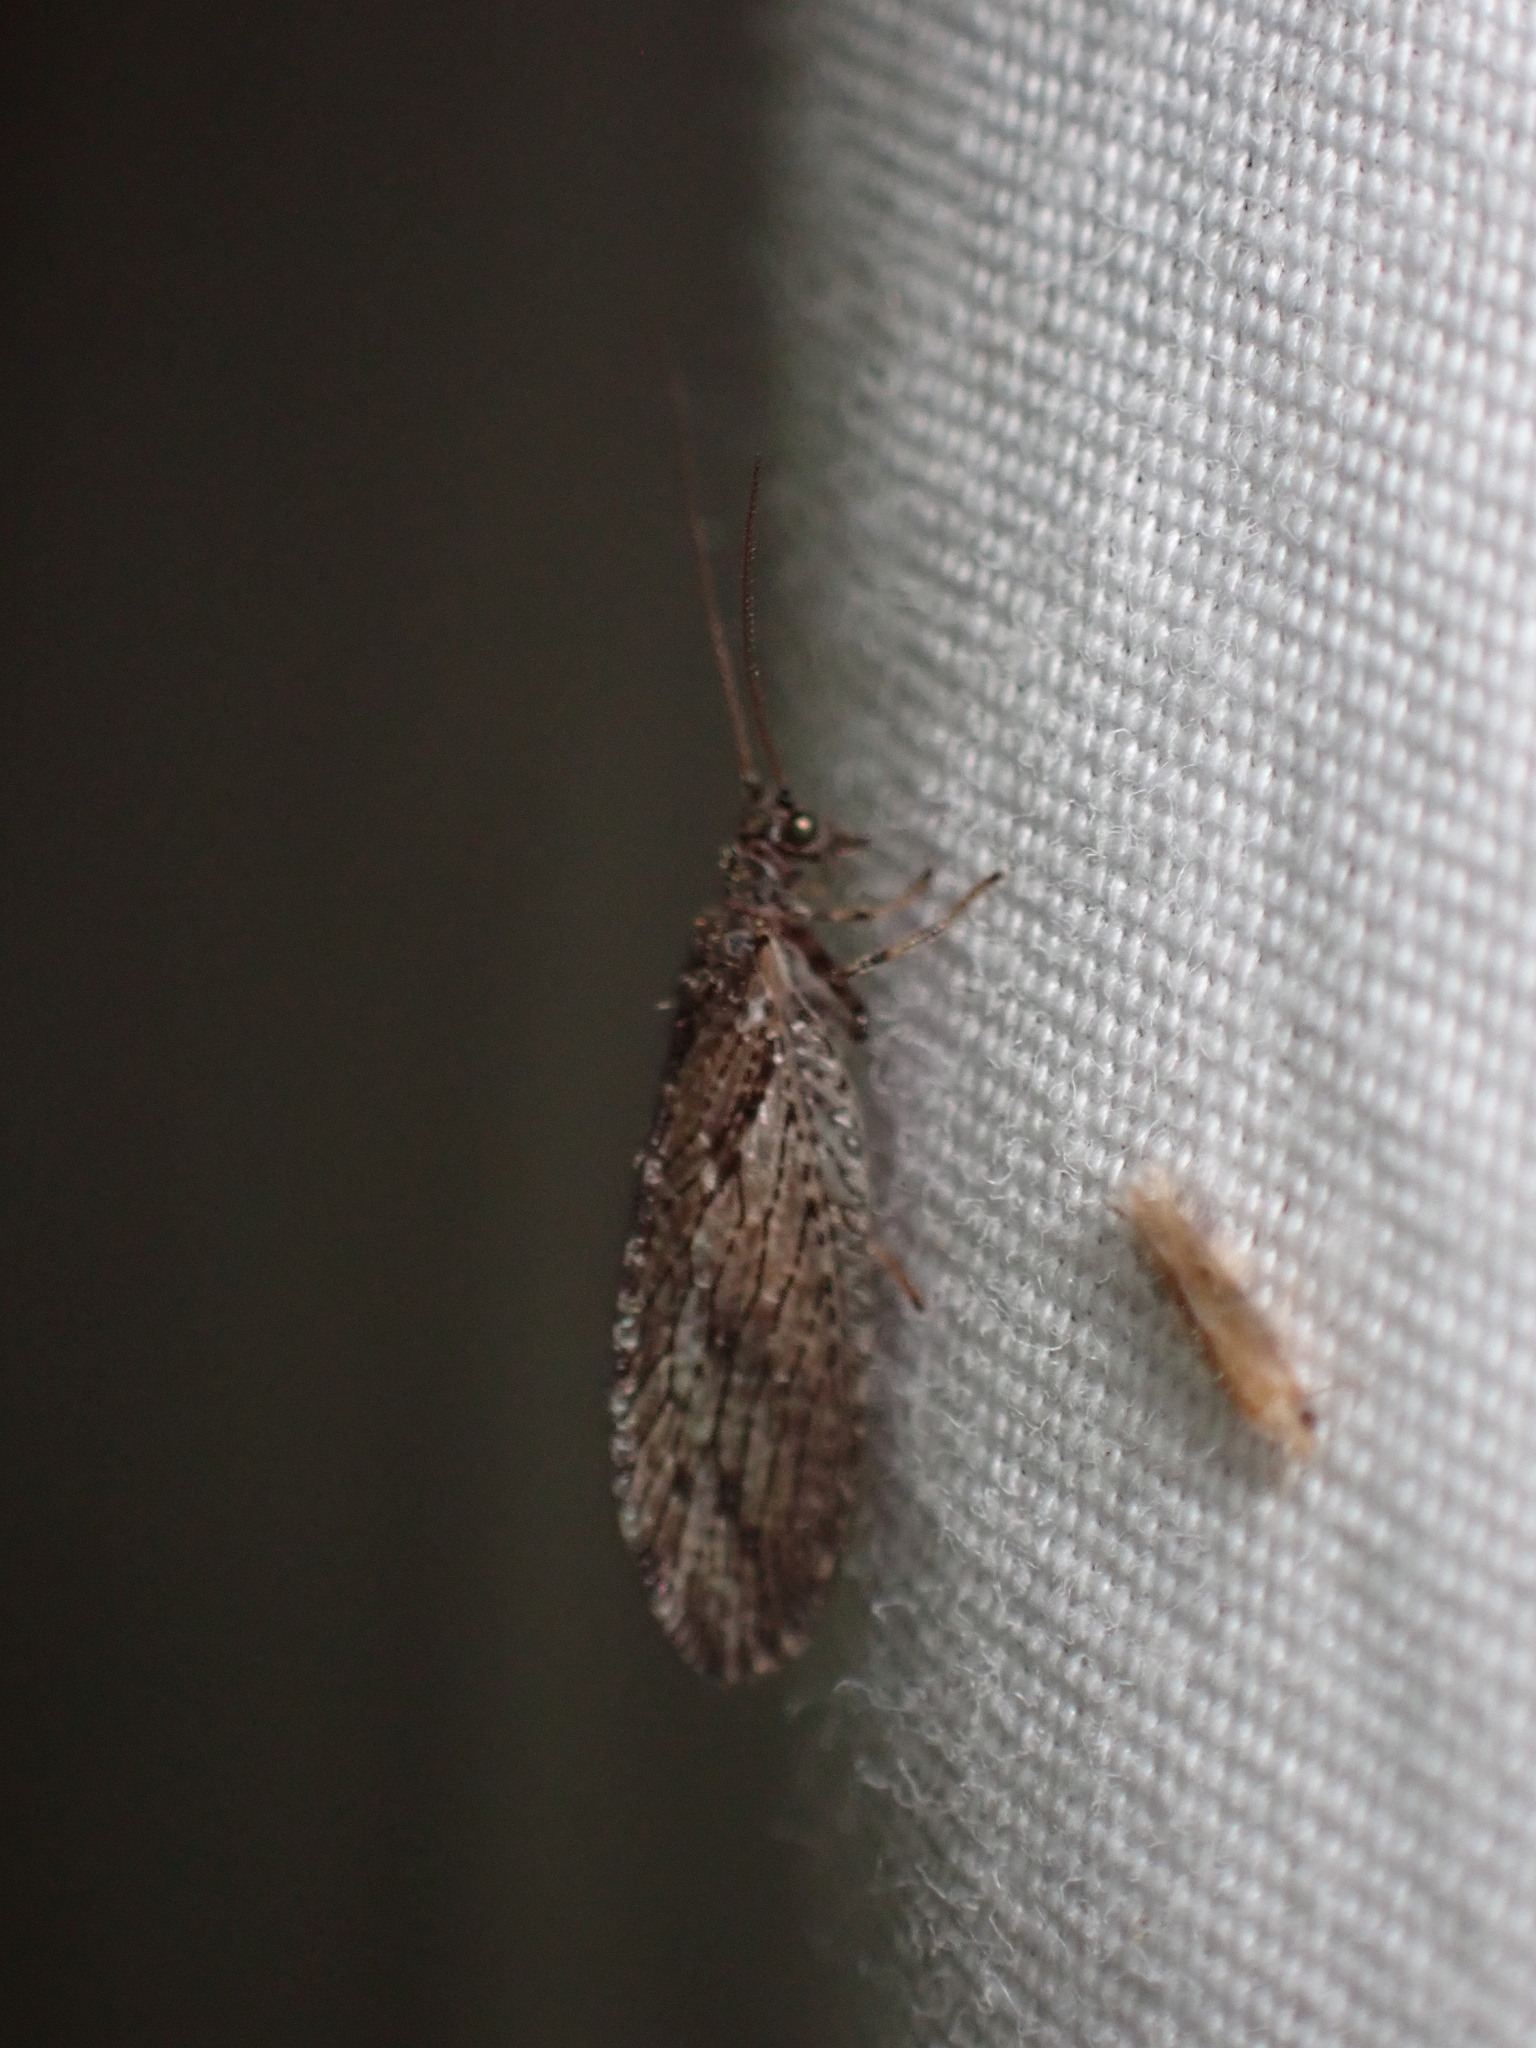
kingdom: Animalia
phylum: Arthropoda
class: Insecta
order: Neuroptera
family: Hemerobiidae
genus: Micromus
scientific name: Micromus variolosus
